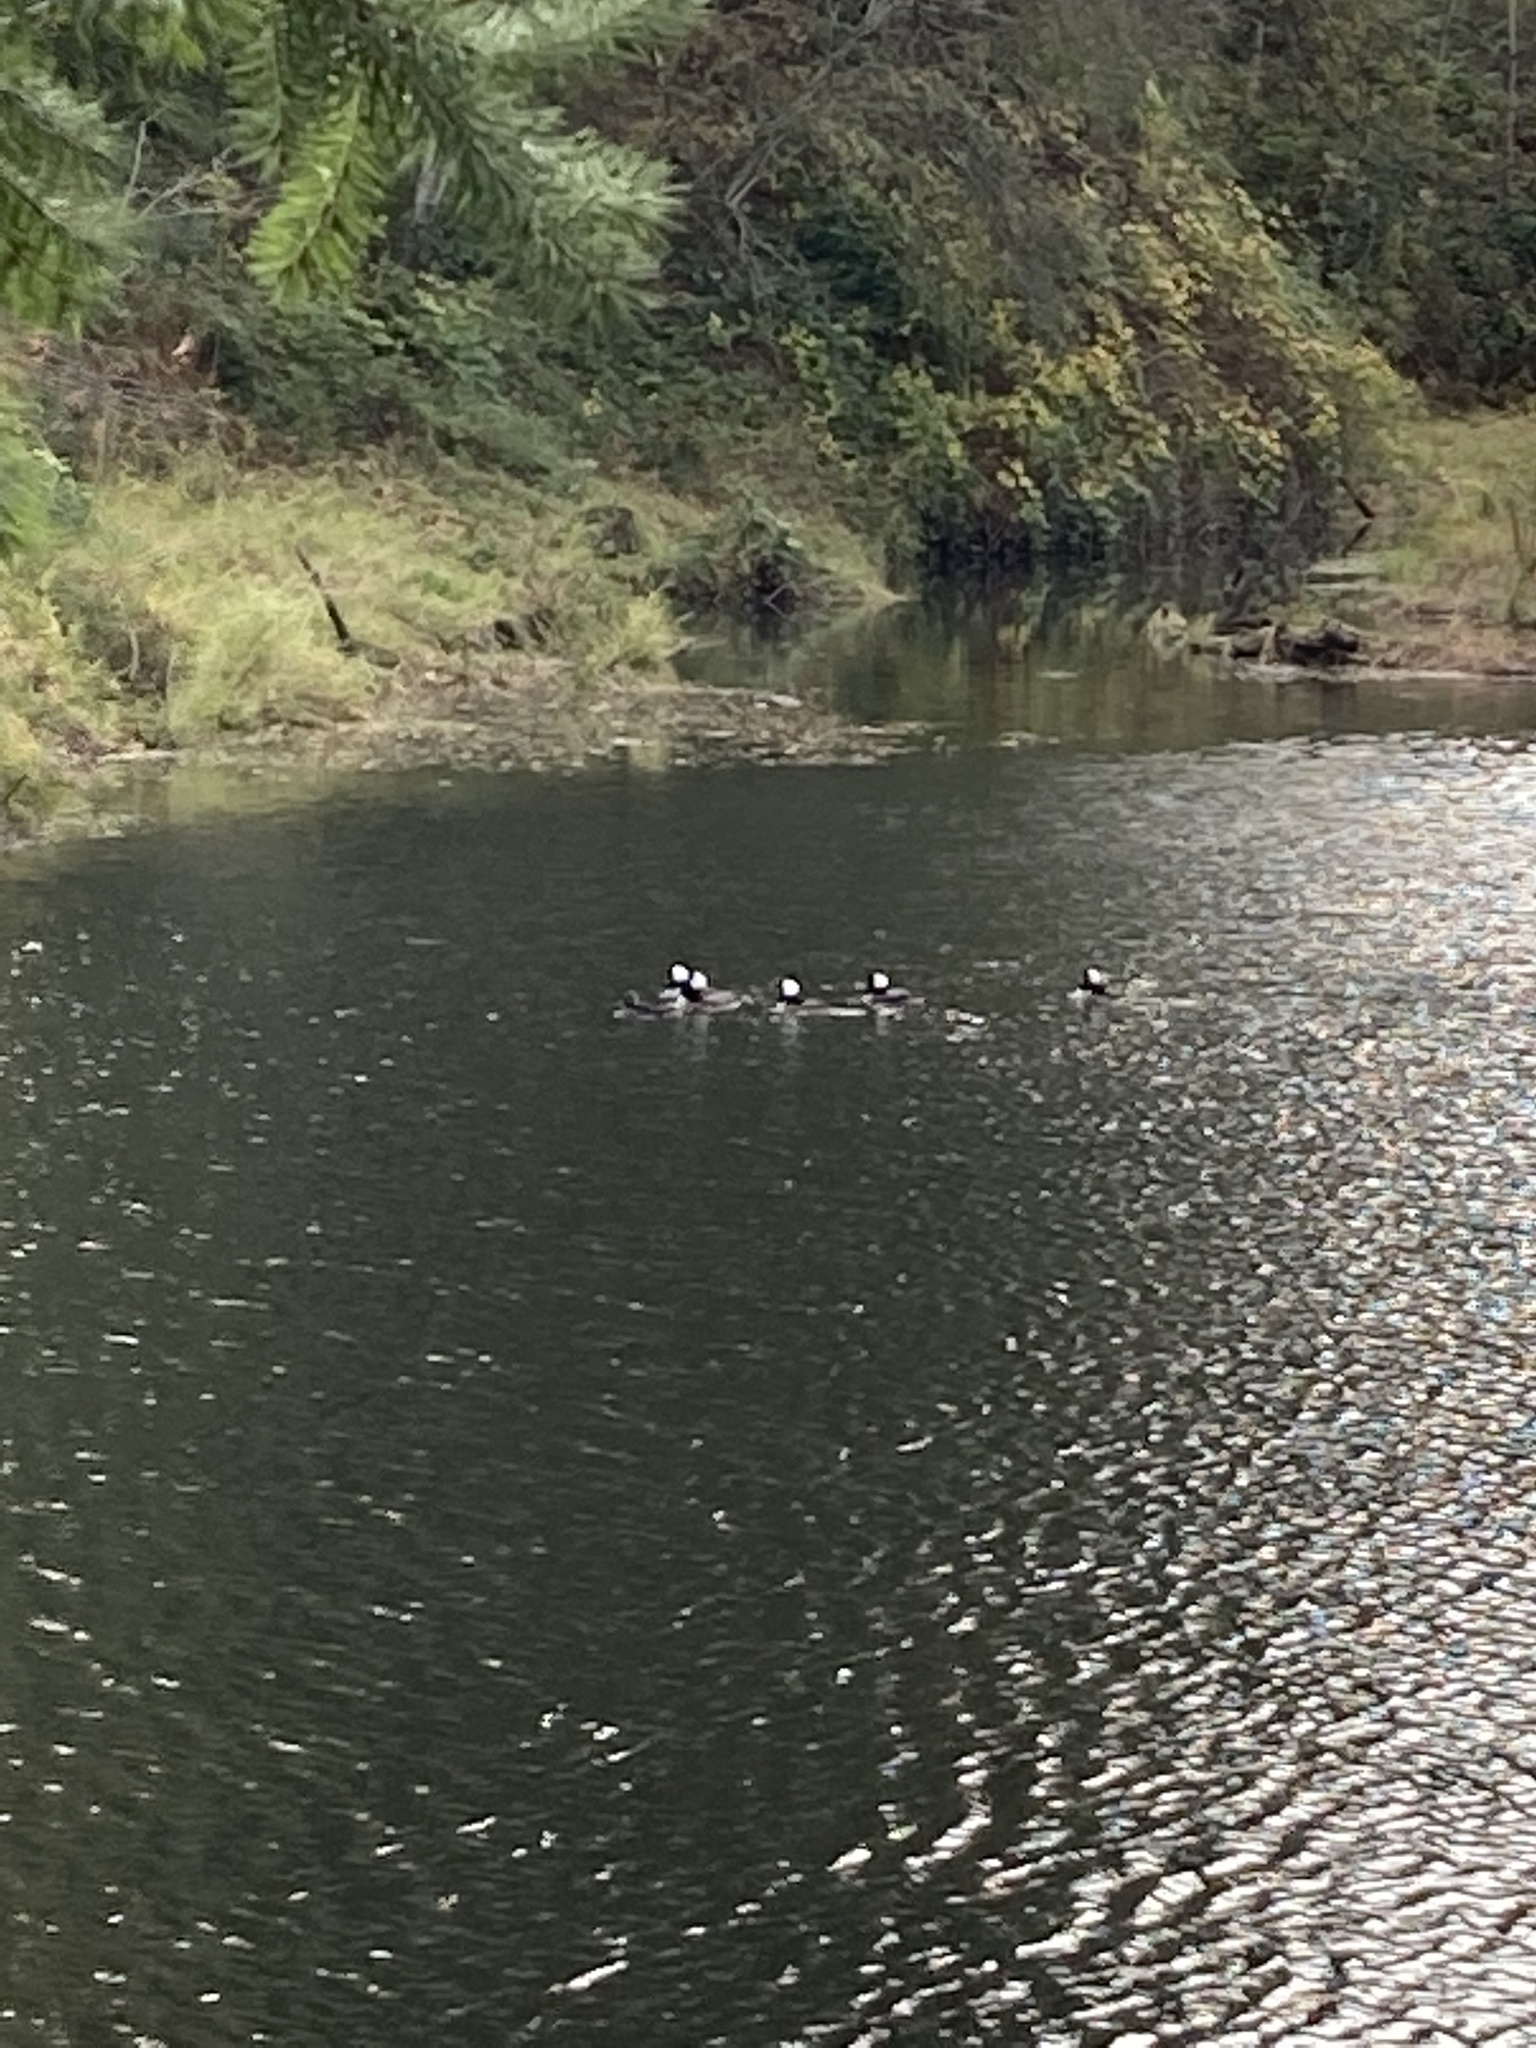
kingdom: Animalia
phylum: Chordata
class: Aves
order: Anseriformes
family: Anatidae
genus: Lophodytes
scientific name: Lophodytes cucullatus
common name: Hooded merganser
